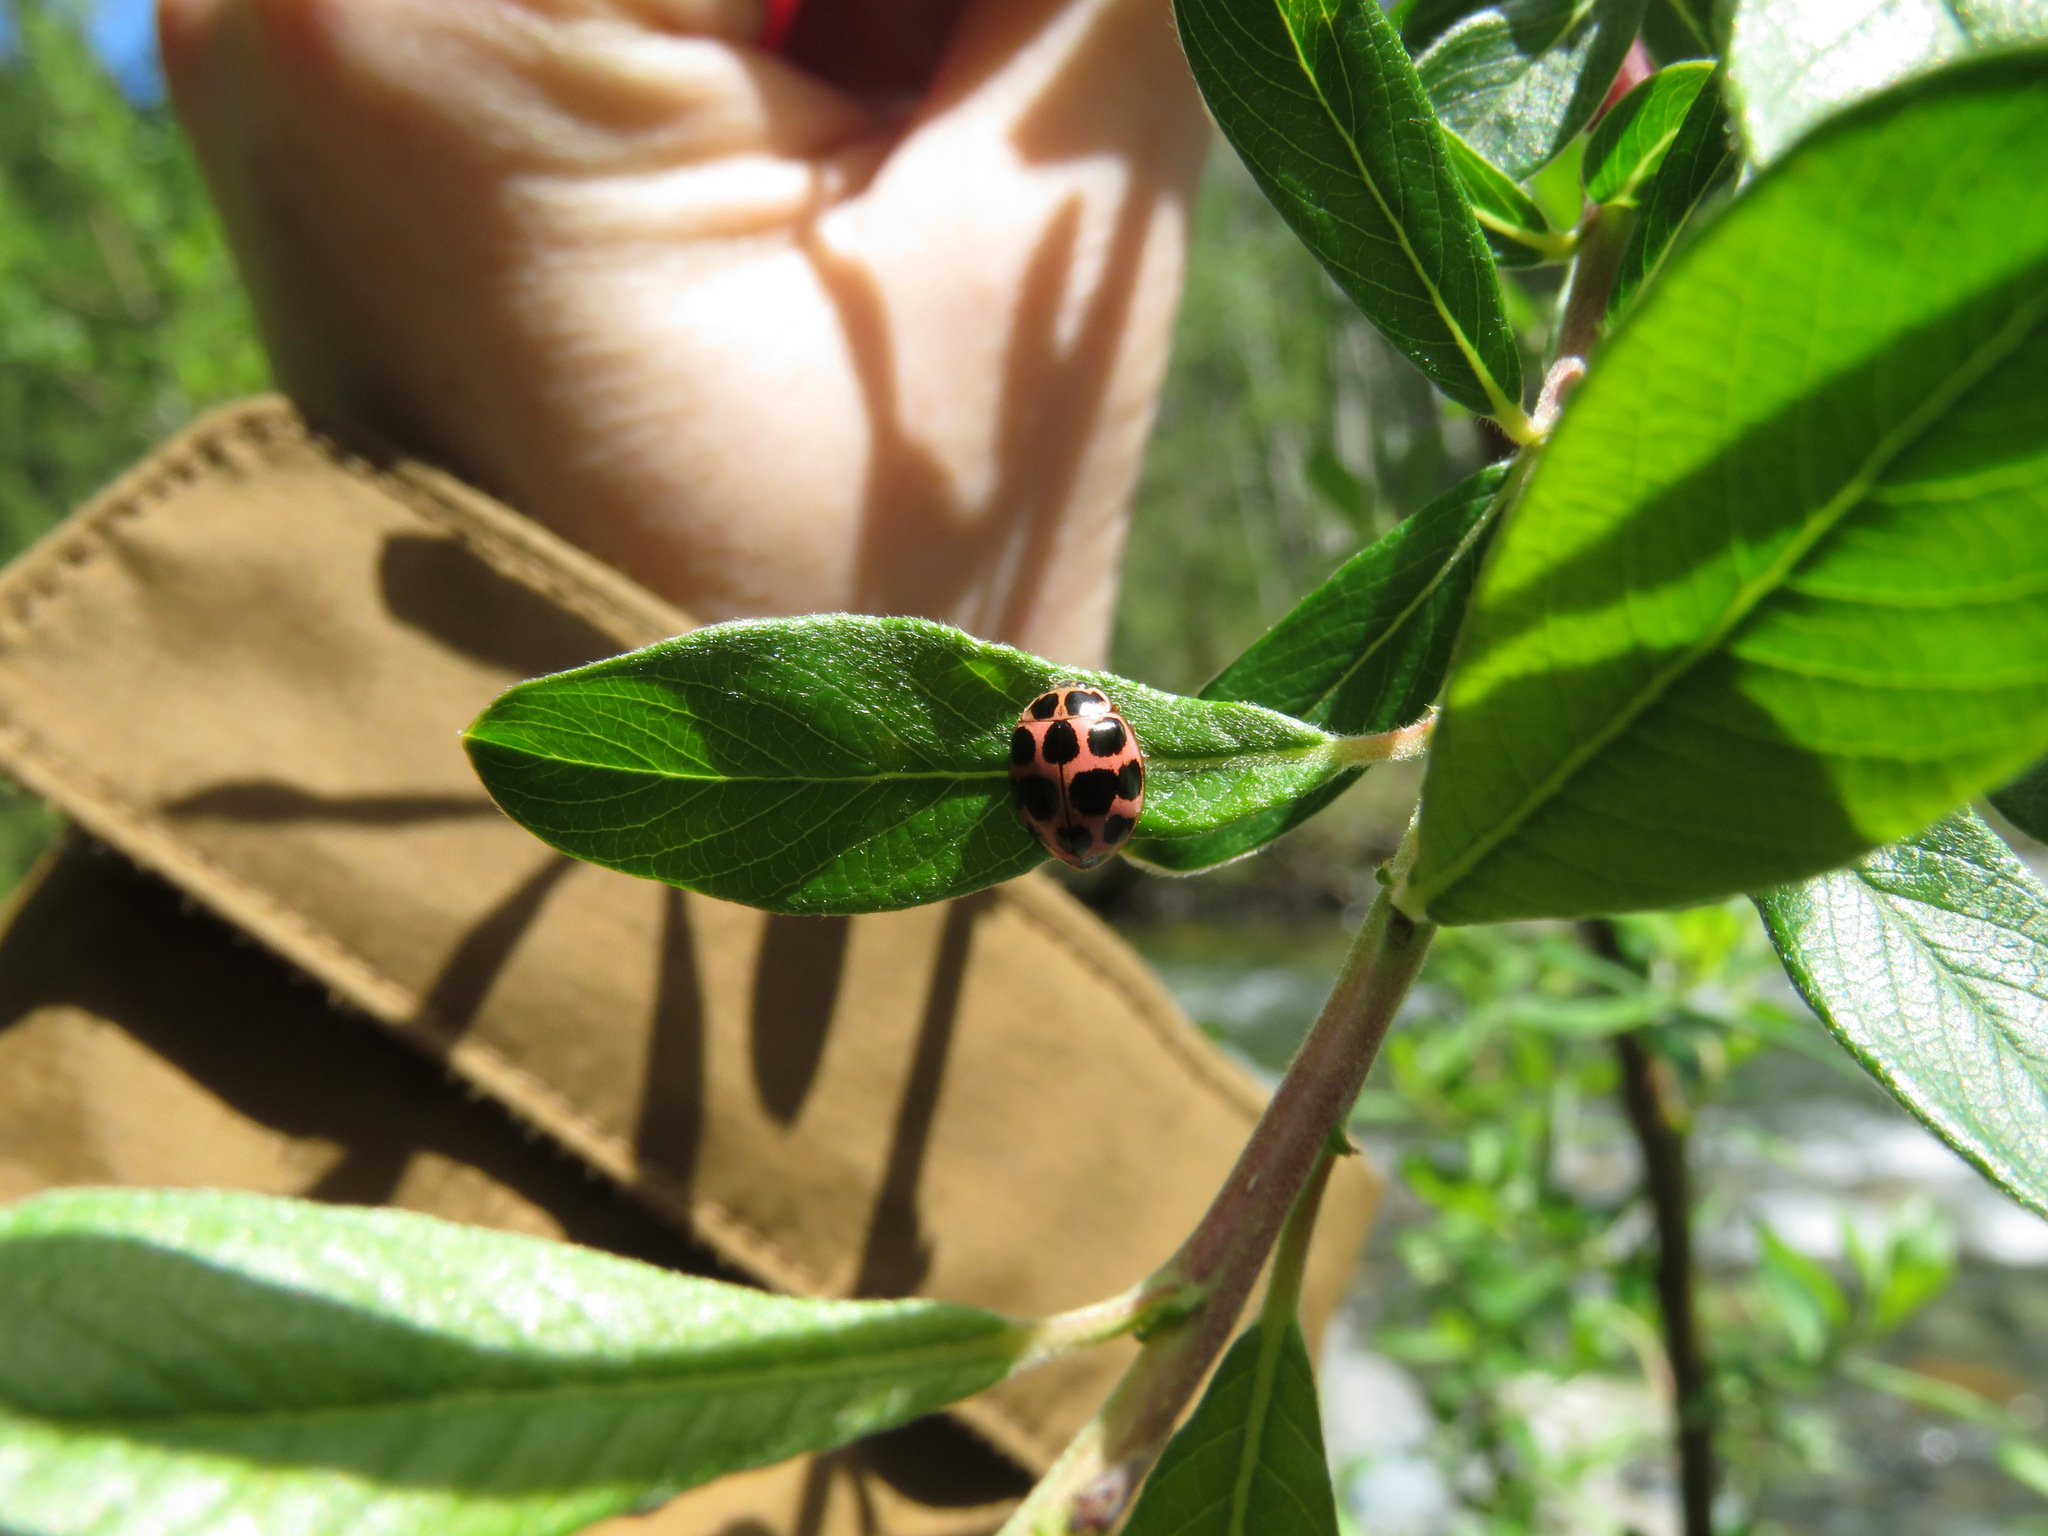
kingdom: Animalia
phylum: Arthropoda
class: Insecta
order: Coleoptera
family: Coccinellidae
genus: Calvia
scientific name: Calvia quatuordecimguttata
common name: Cream-spot ladybird
